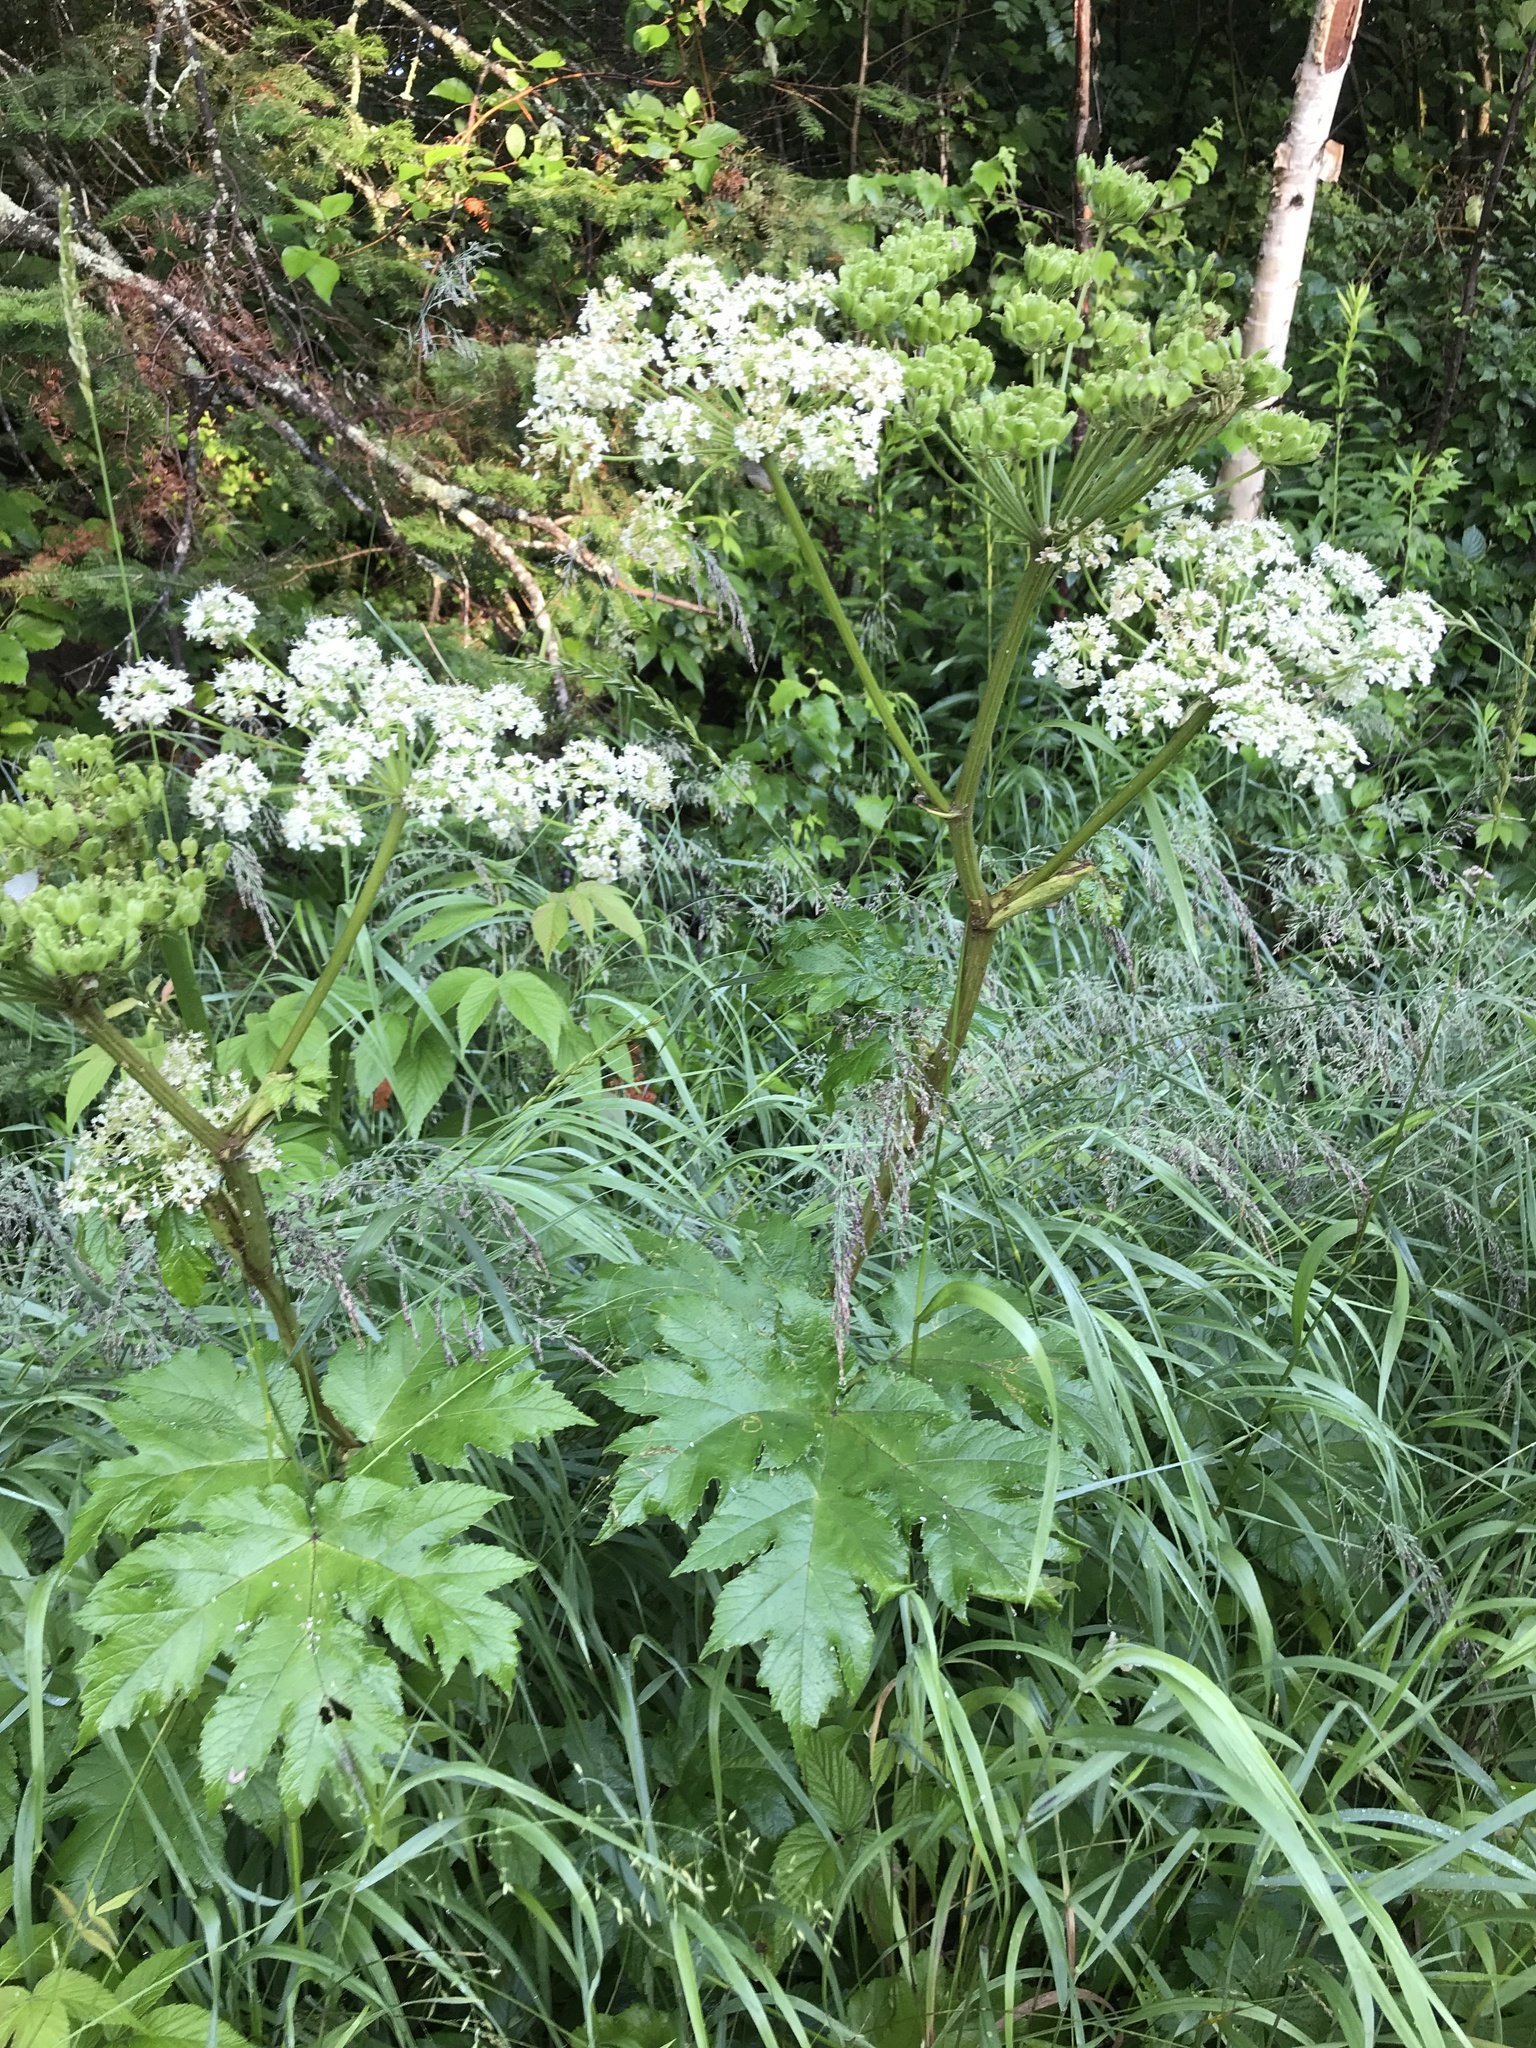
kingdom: Plantae
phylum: Tracheophyta
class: Magnoliopsida
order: Apiales
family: Apiaceae
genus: Heracleum
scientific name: Heracleum maximum
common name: American cow parsnip
